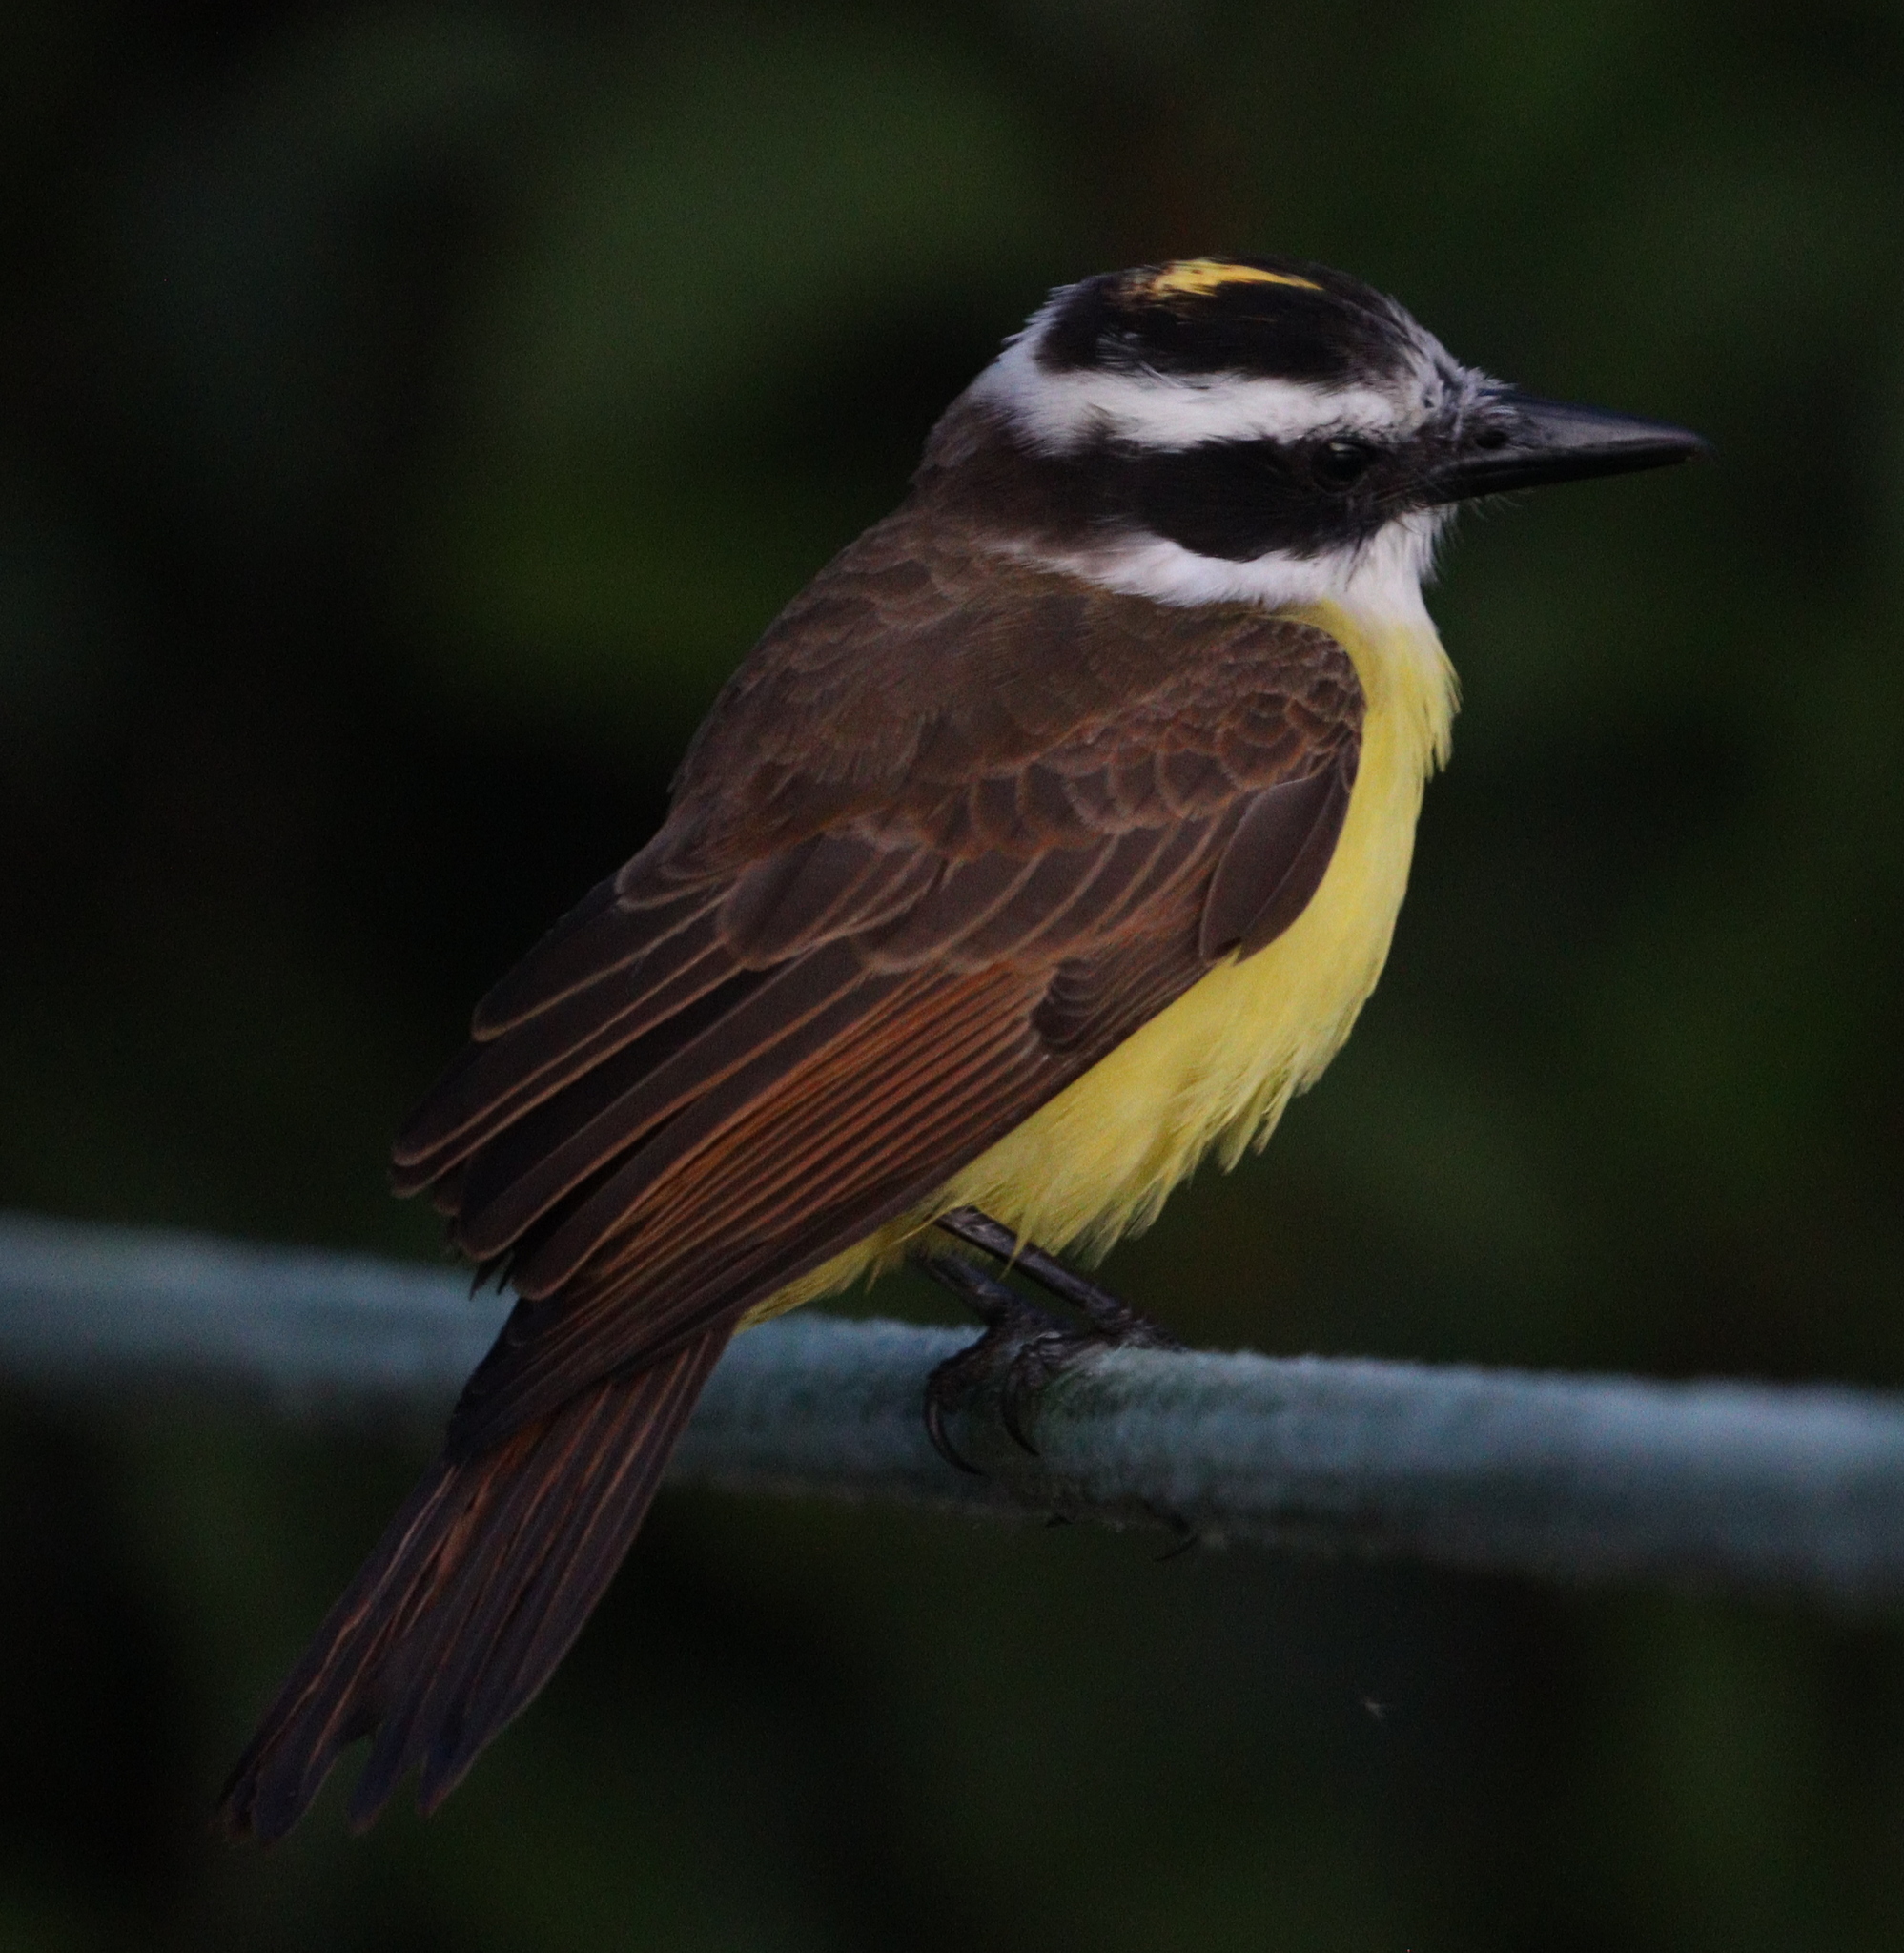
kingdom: Animalia
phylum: Chordata
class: Aves
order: Passeriformes
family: Tyrannidae
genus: Pitangus
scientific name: Pitangus sulphuratus
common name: Great kiskadee
